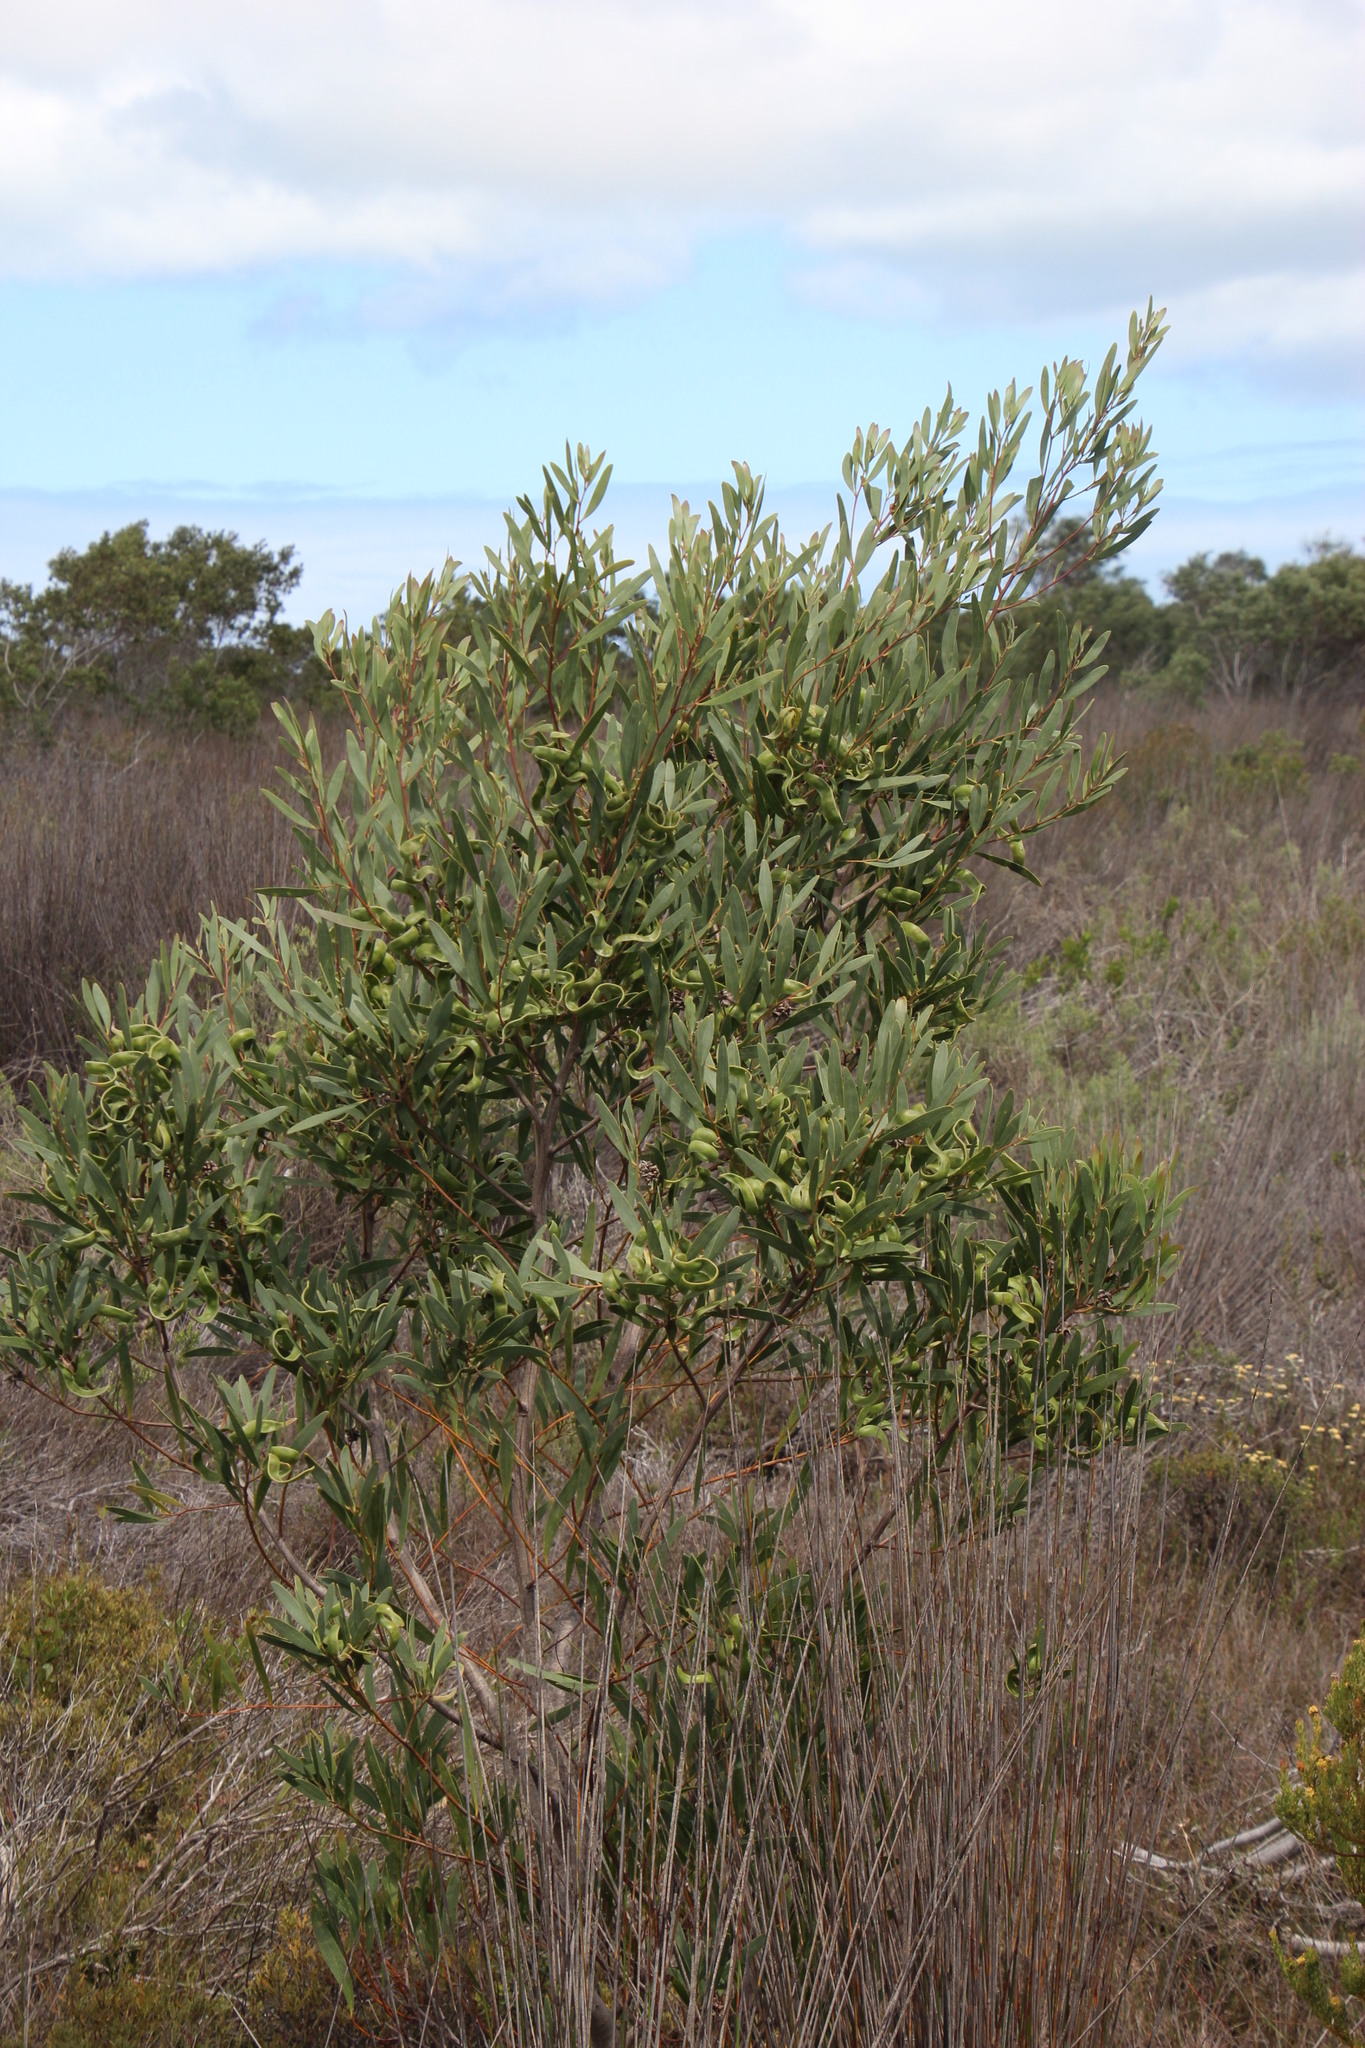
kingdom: Plantae
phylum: Tracheophyta
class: Magnoliopsida
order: Fabales
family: Fabaceae
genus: Acacia
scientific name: Acacia cyclops
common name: Coastal wattle
